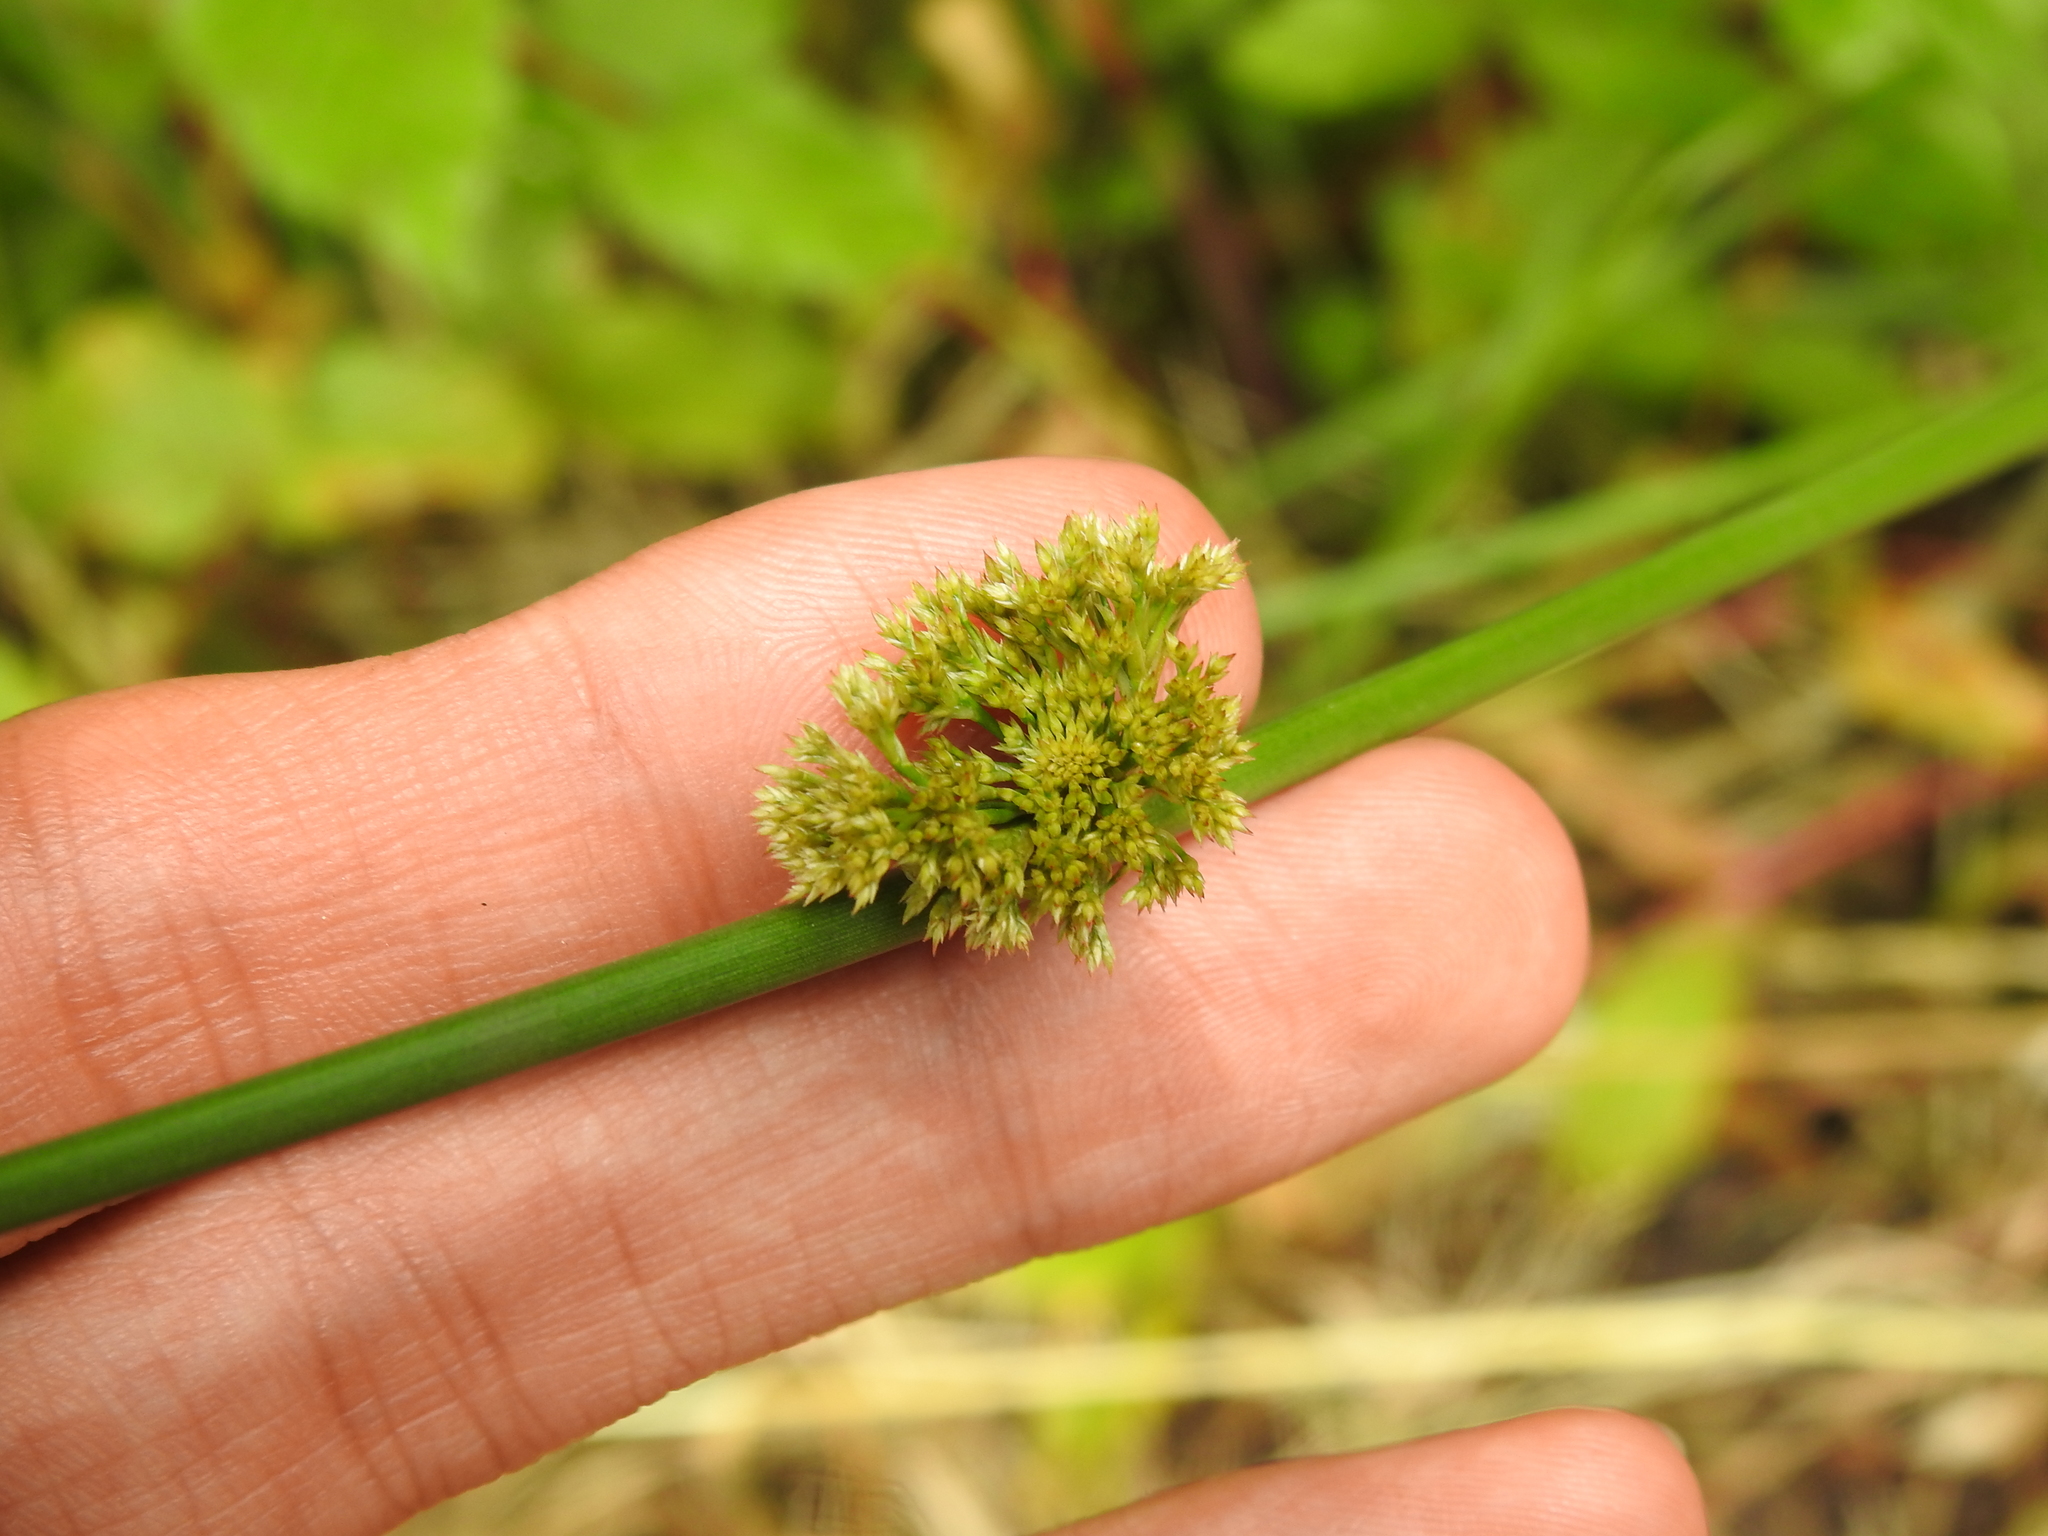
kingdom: Plantae
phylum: Tracheophyta
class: Liliopsida
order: Poales
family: Juncaceae
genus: Juncus
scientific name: Juncus effusus
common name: Soft rush
